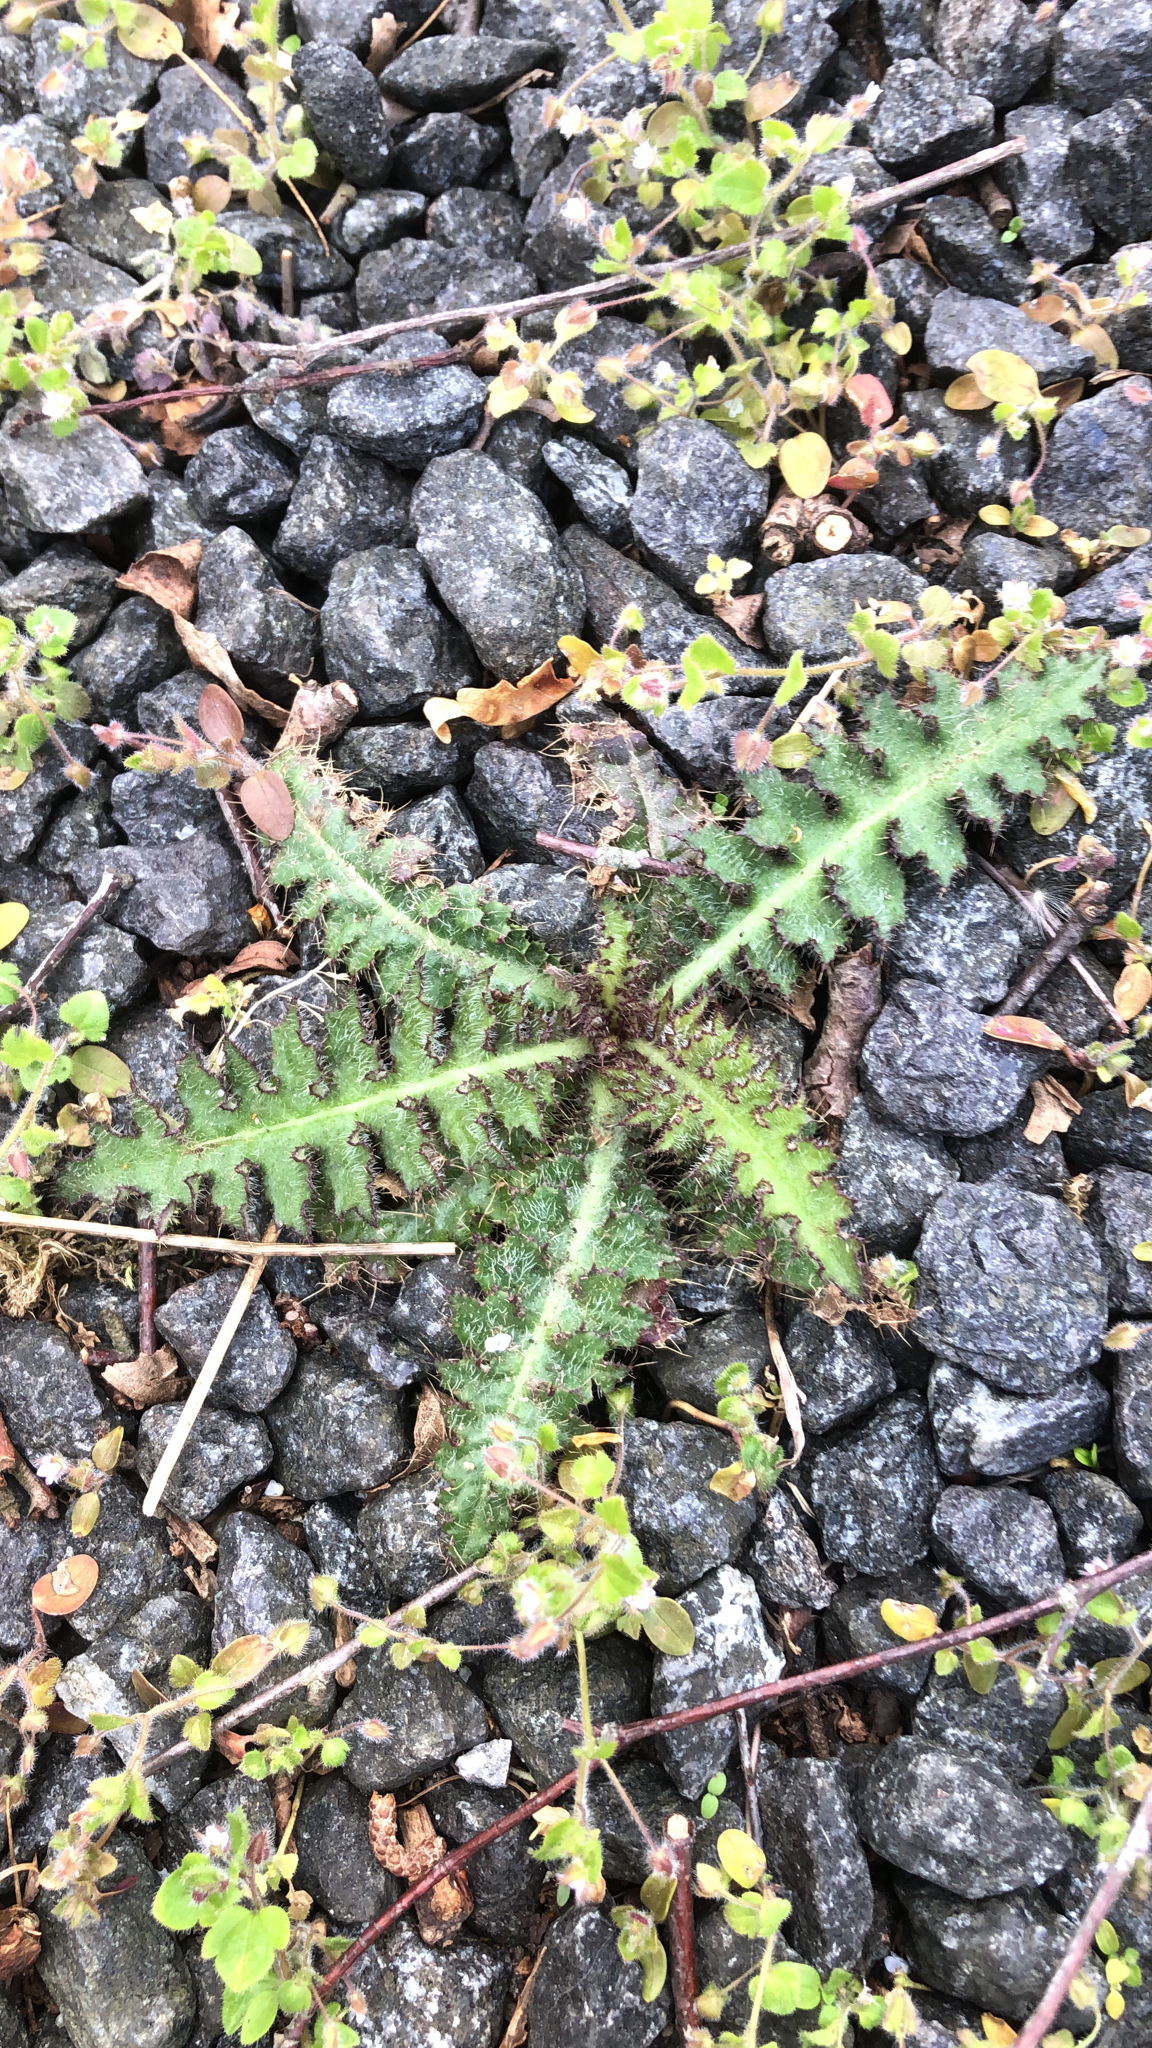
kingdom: Plantae
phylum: Tracheophyta
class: Magnoliopsida
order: Asterales
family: Asteraceae
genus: Cirsium
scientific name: Cirsium palustre
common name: Marsh thistle
